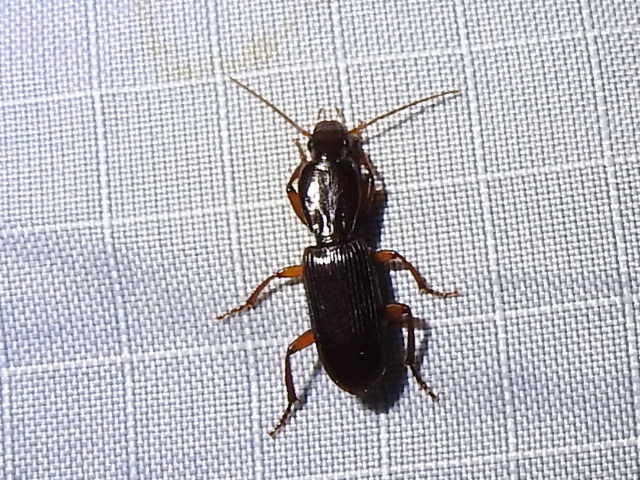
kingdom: Animalia
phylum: Arthropoda
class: Insecta
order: Coleoptera
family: Carabidae
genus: Stenomorphus
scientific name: Stenomorphus californicus
